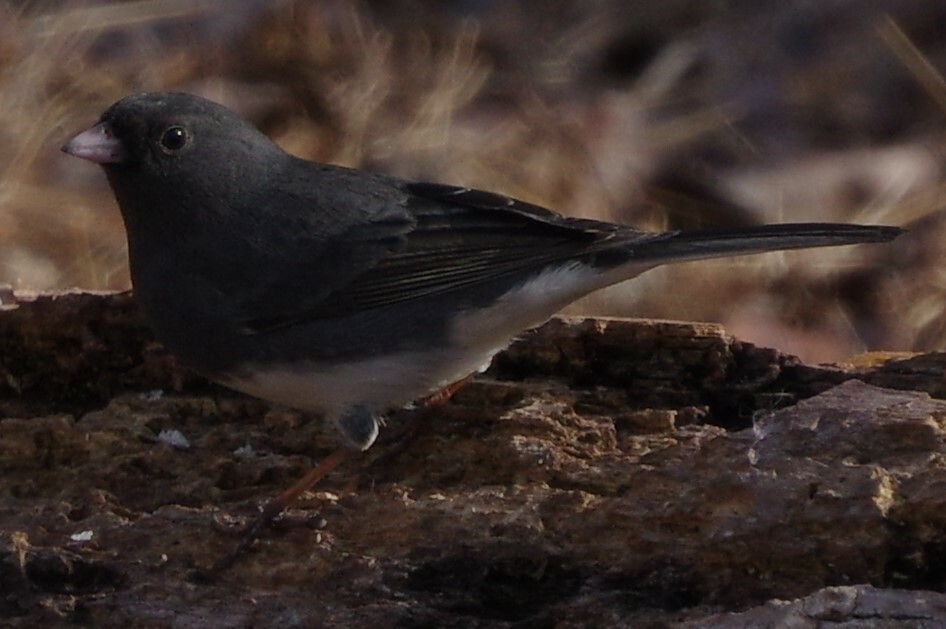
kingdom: Animalia
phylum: Chordata
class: Aves
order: Passeriformes
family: Passerellidae
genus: Junco
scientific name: Junco hyemalis
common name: Dark-eyed junco
